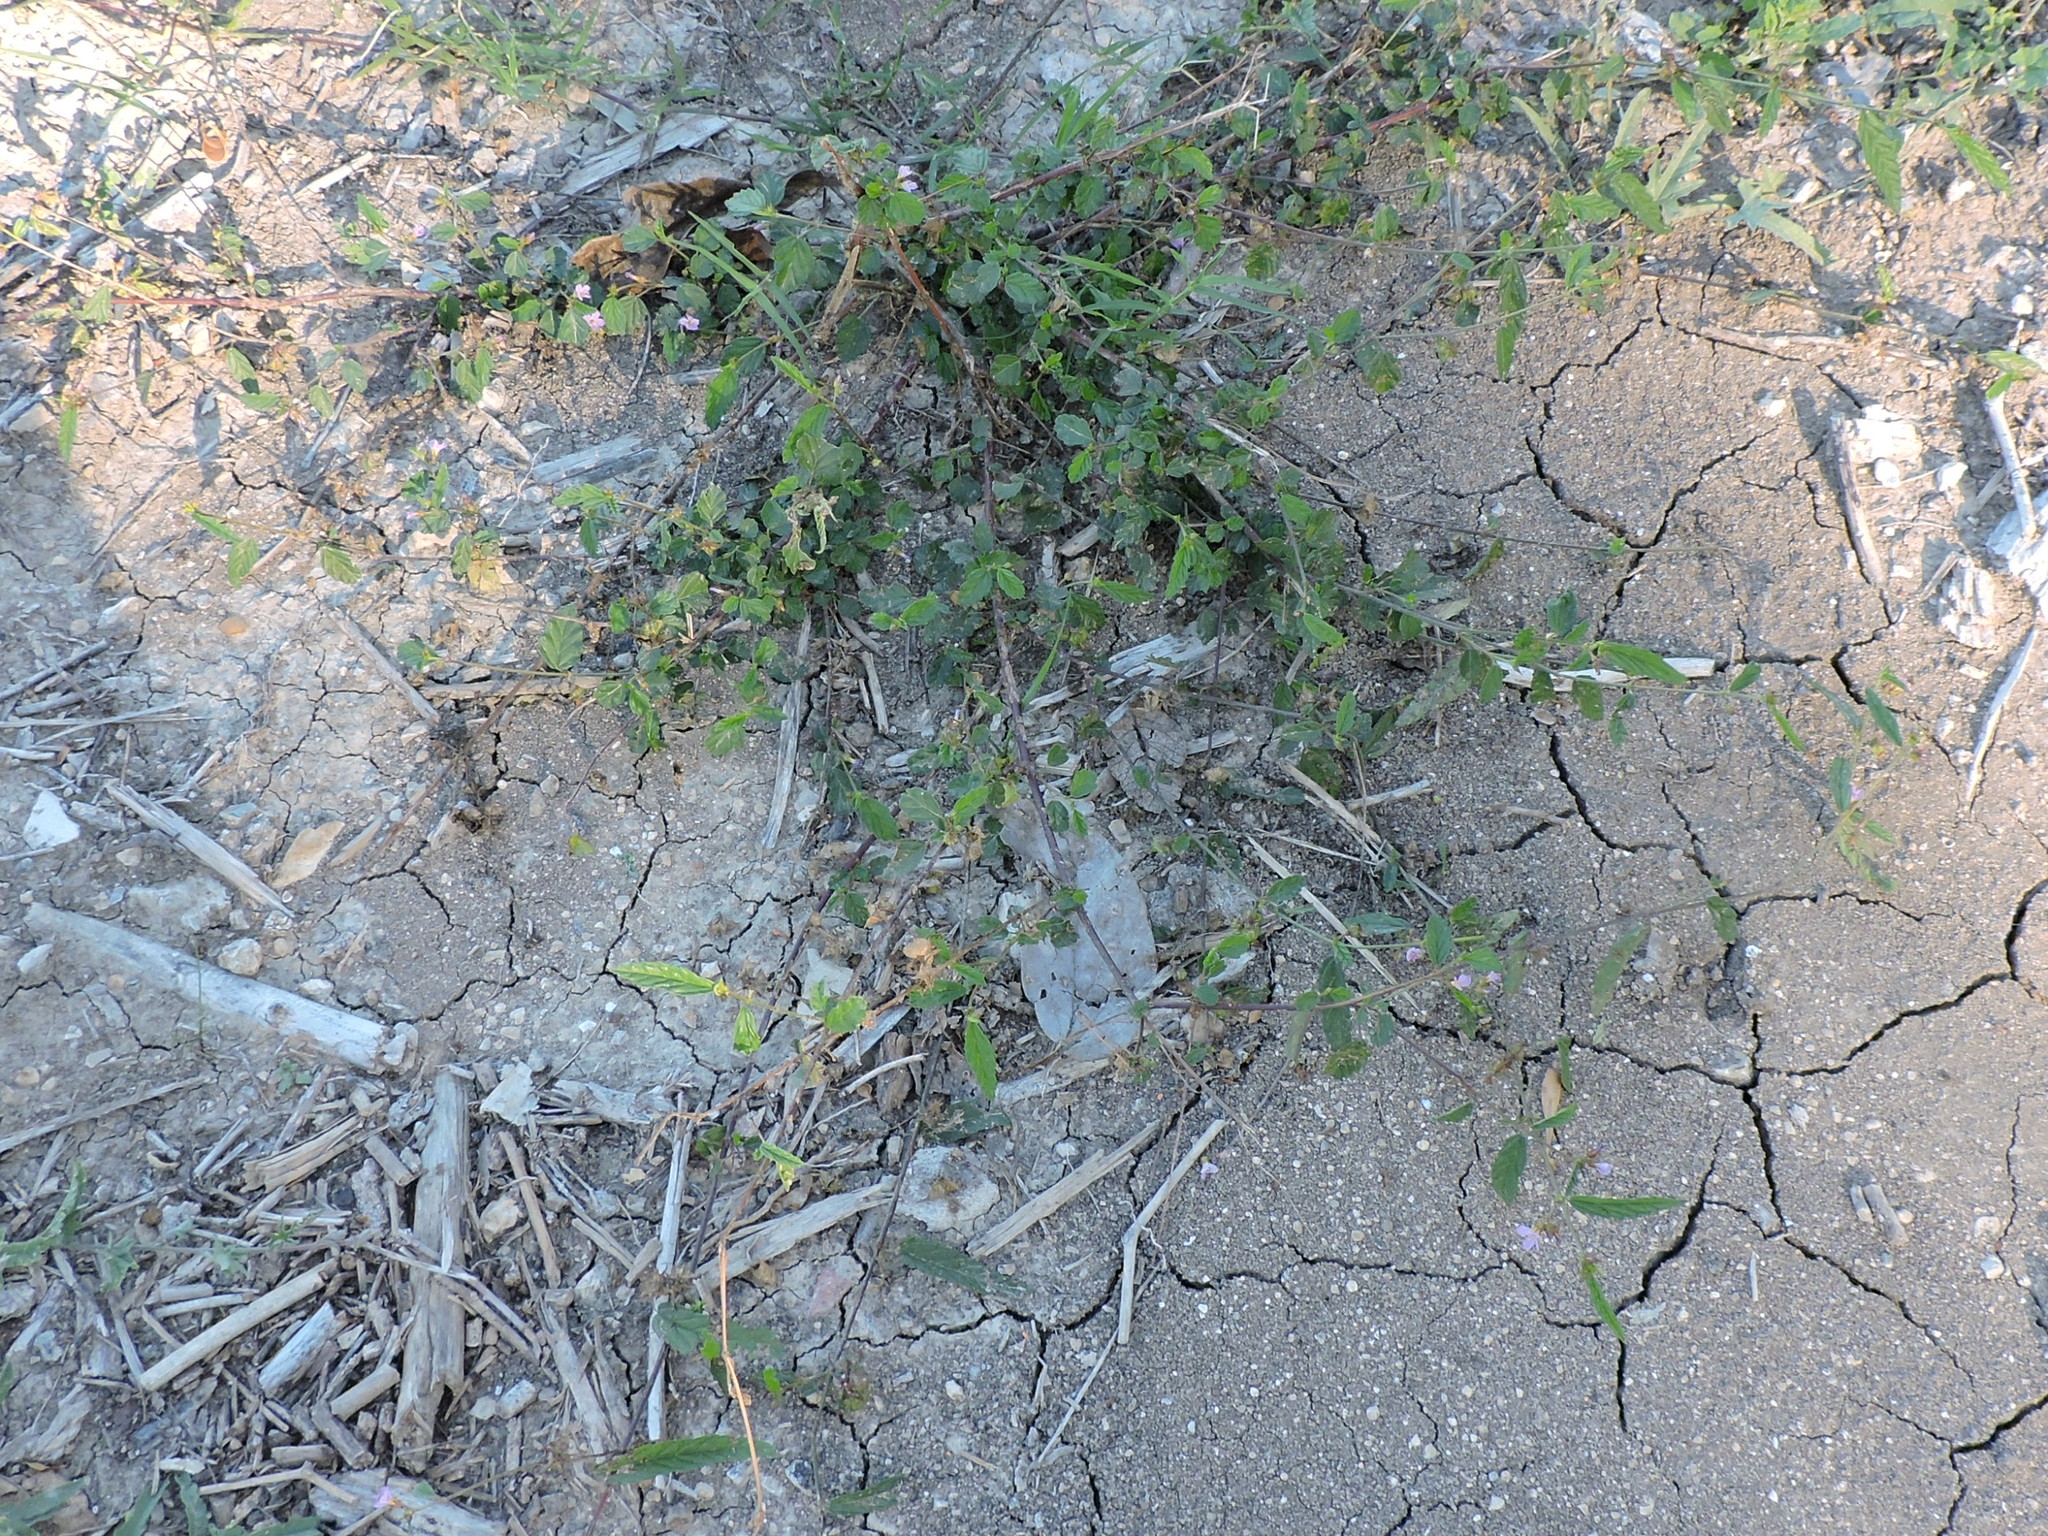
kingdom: Plantae
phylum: Tracheophyta
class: Magnoliopsida
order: Malvales
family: Malvaceae
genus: Melochia
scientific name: Melochia pyramidata
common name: Pyramidflower
